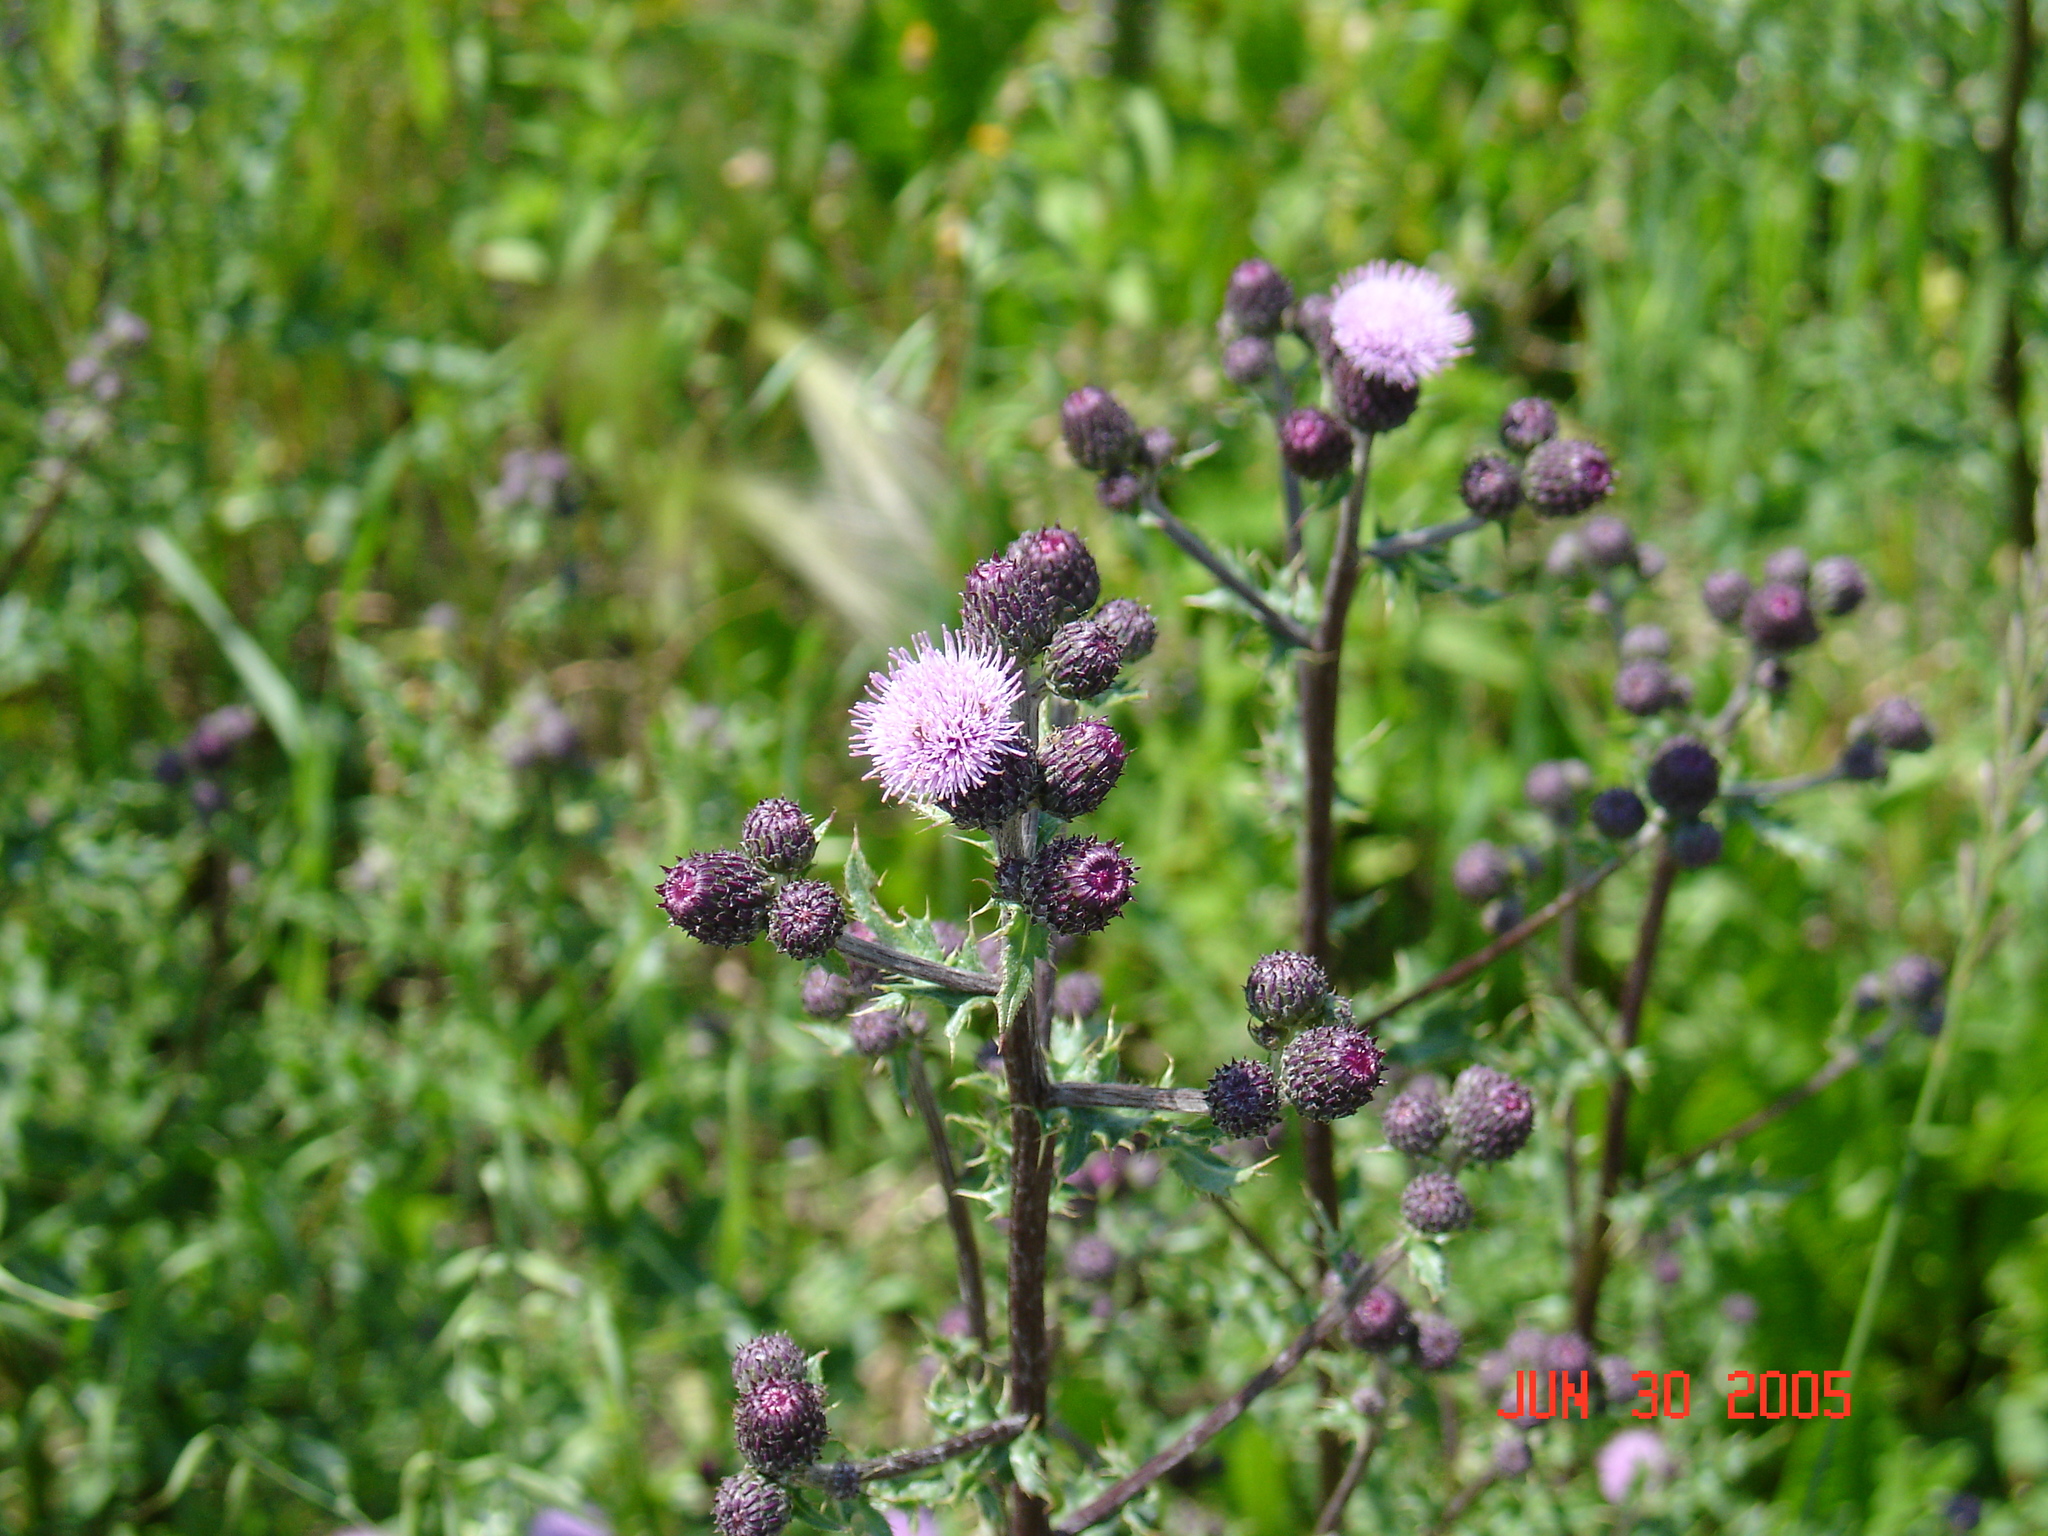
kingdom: Plantae
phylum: Tracheophyta
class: Magnoliopsida
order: Asterales
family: Asteraceae
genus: Cirsium
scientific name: Cirsium arvense
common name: Creeping thistle
